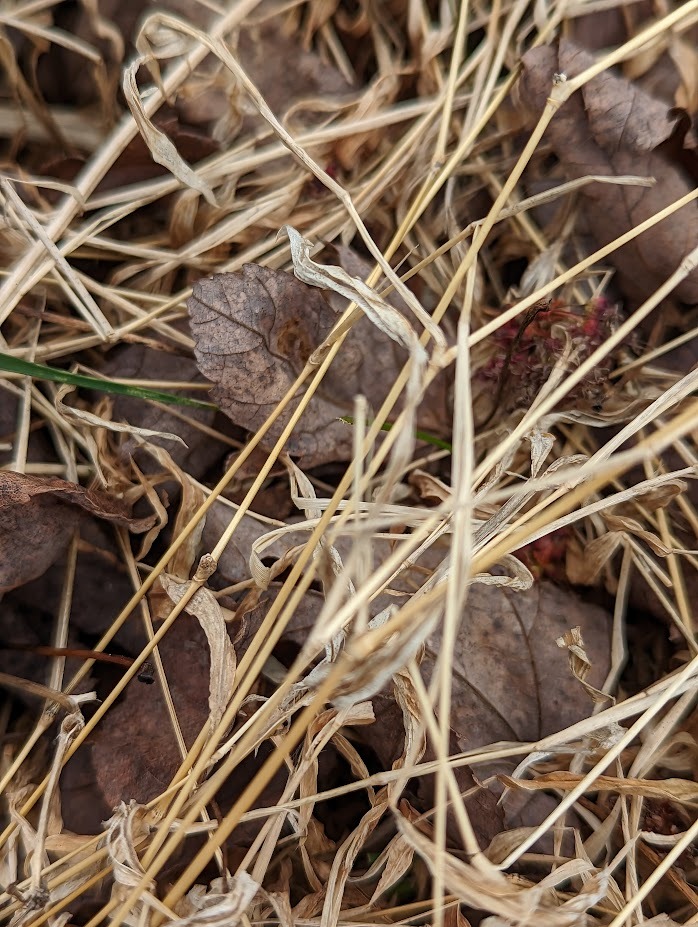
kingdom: Plantae
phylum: Tracheophyta
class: Liliopsida
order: Poales
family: Poaceae
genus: Microstegium
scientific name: Microstegium vimineum
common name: Japanese stiltgrass
